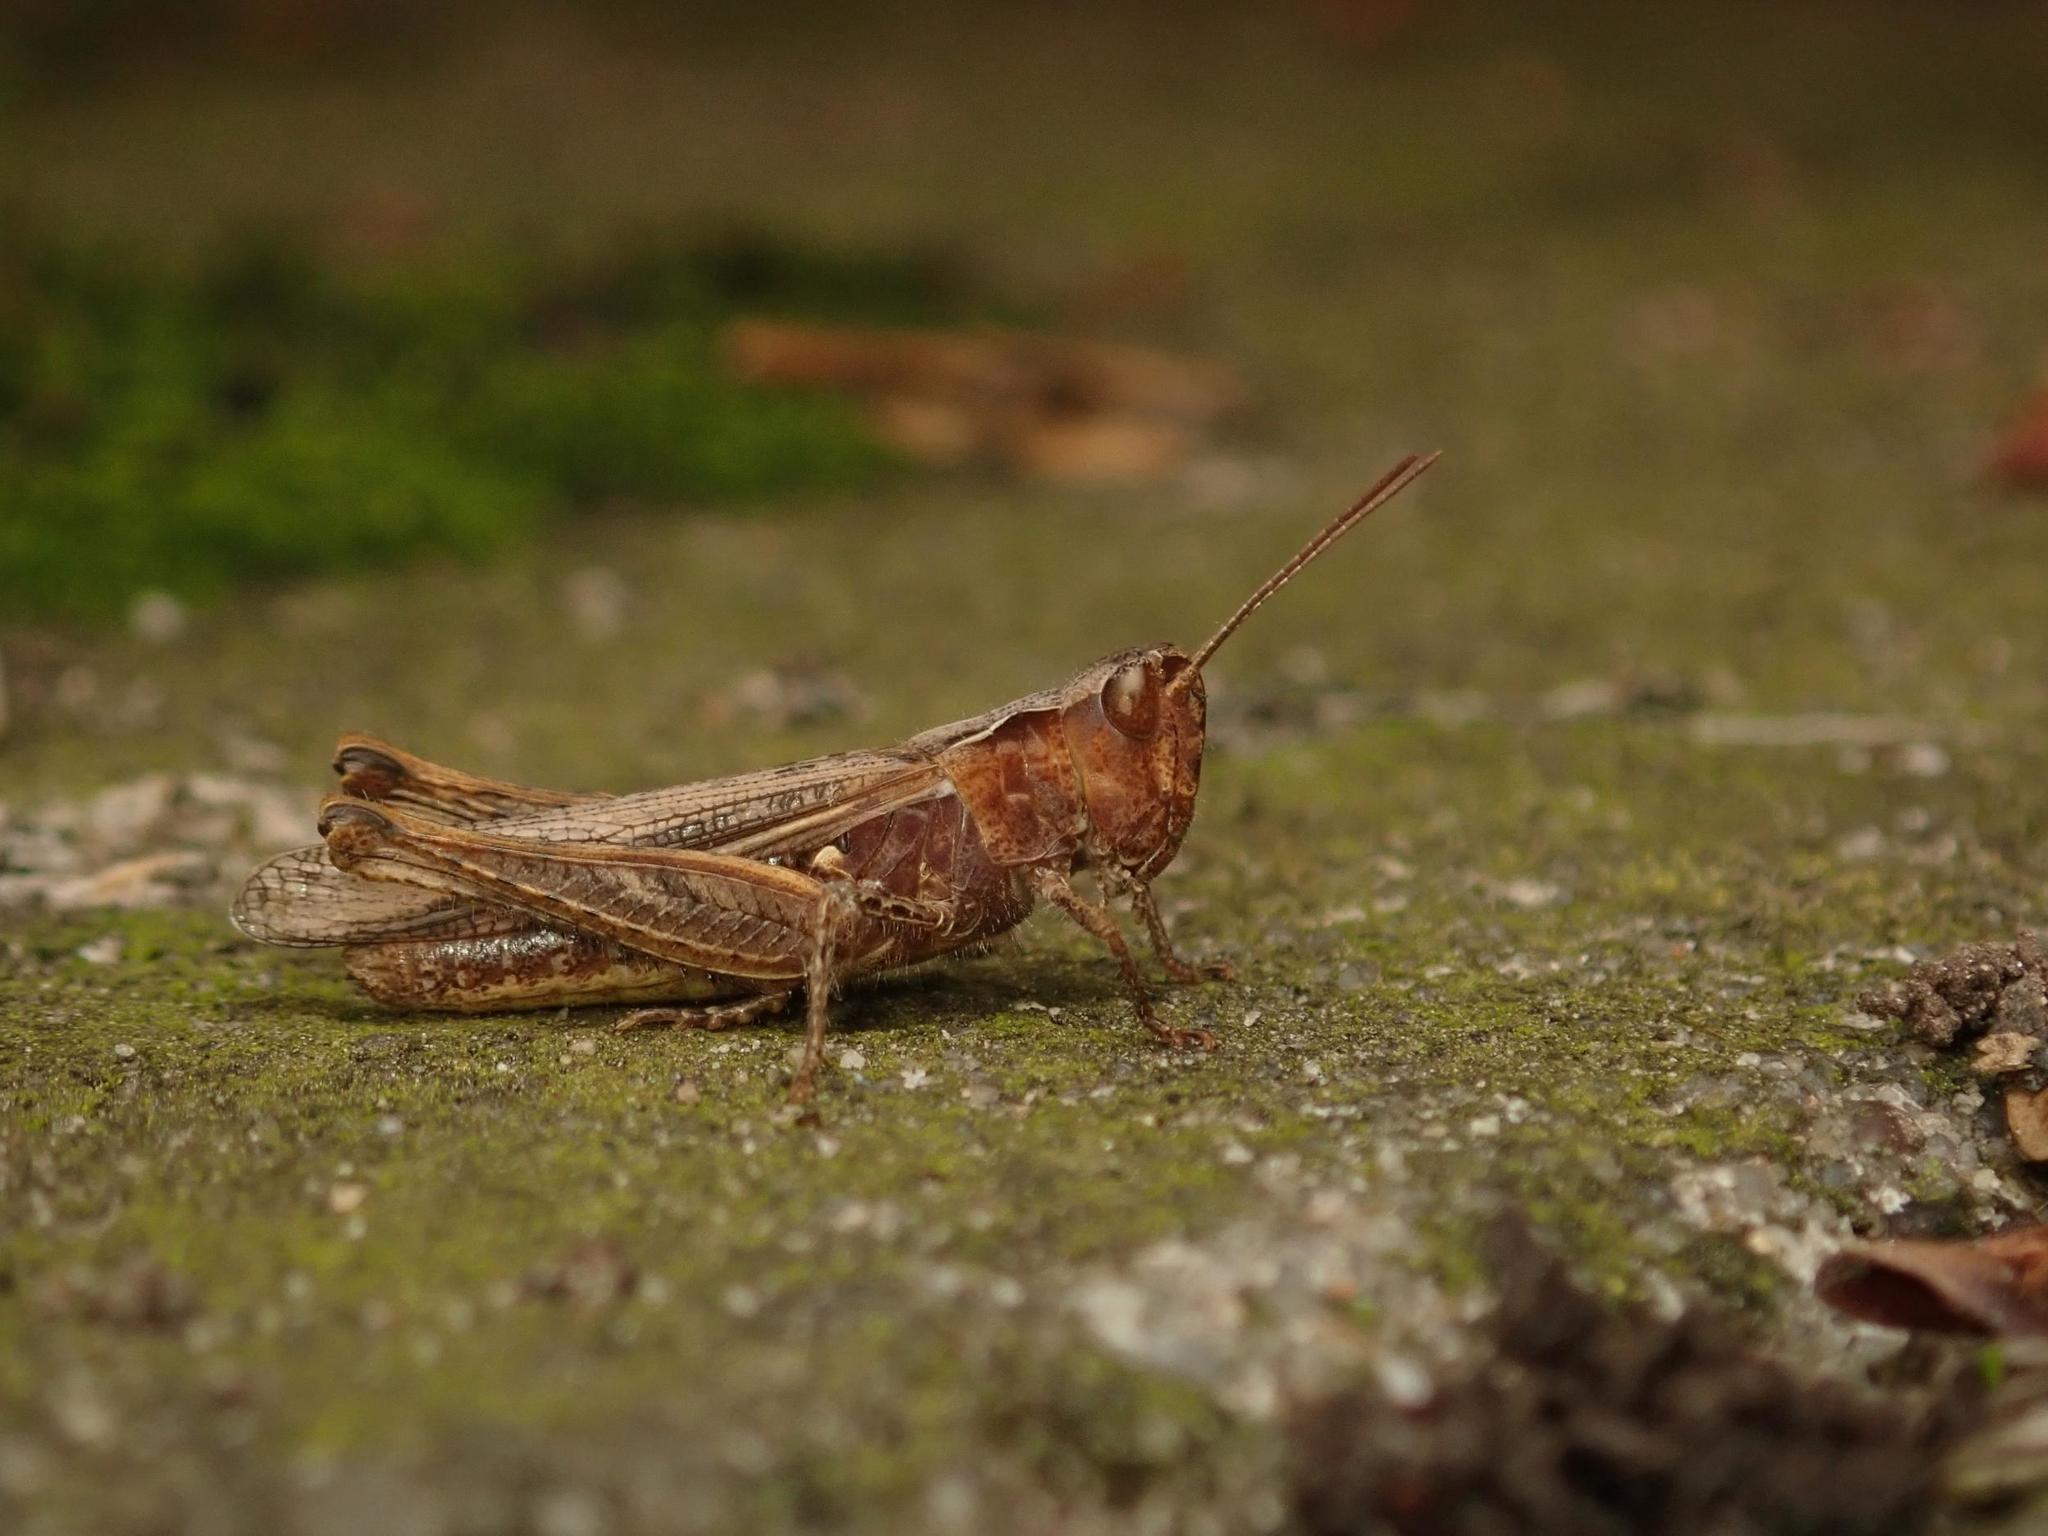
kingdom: Animalia
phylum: Arthropoda
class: Insecta
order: Orthoptera
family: Acrididae
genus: Chorthippus
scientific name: Chorthippus brunneus
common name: Field grasshopper
